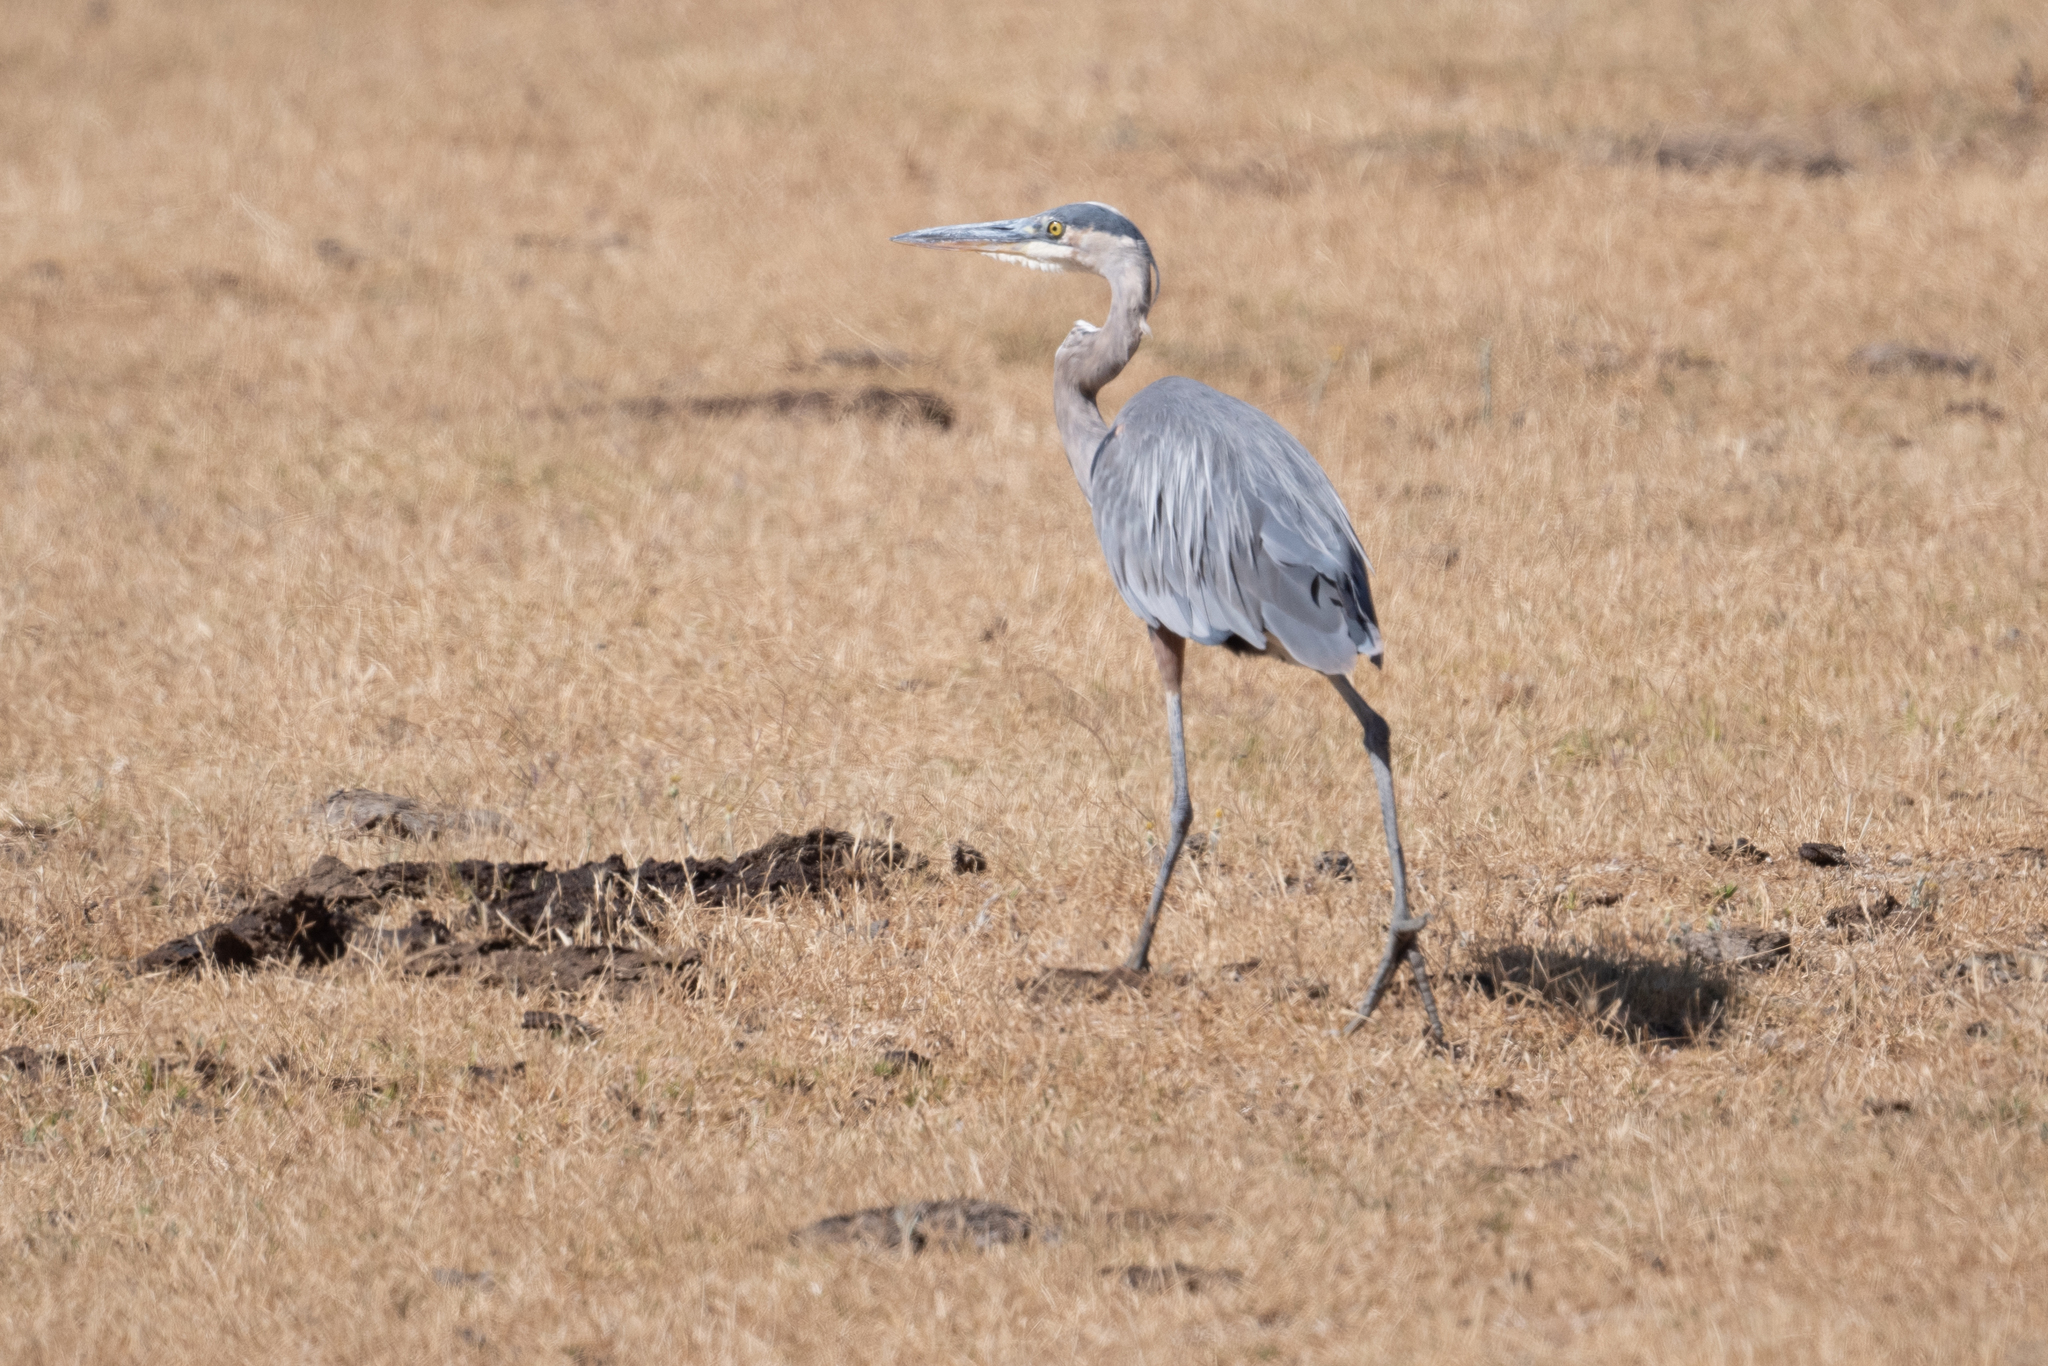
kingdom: Animalia
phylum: Chordata
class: Aves
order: Pelecaniformes
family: Ardeidae
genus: Ardea
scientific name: Ardea herodias
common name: Great blue heron
